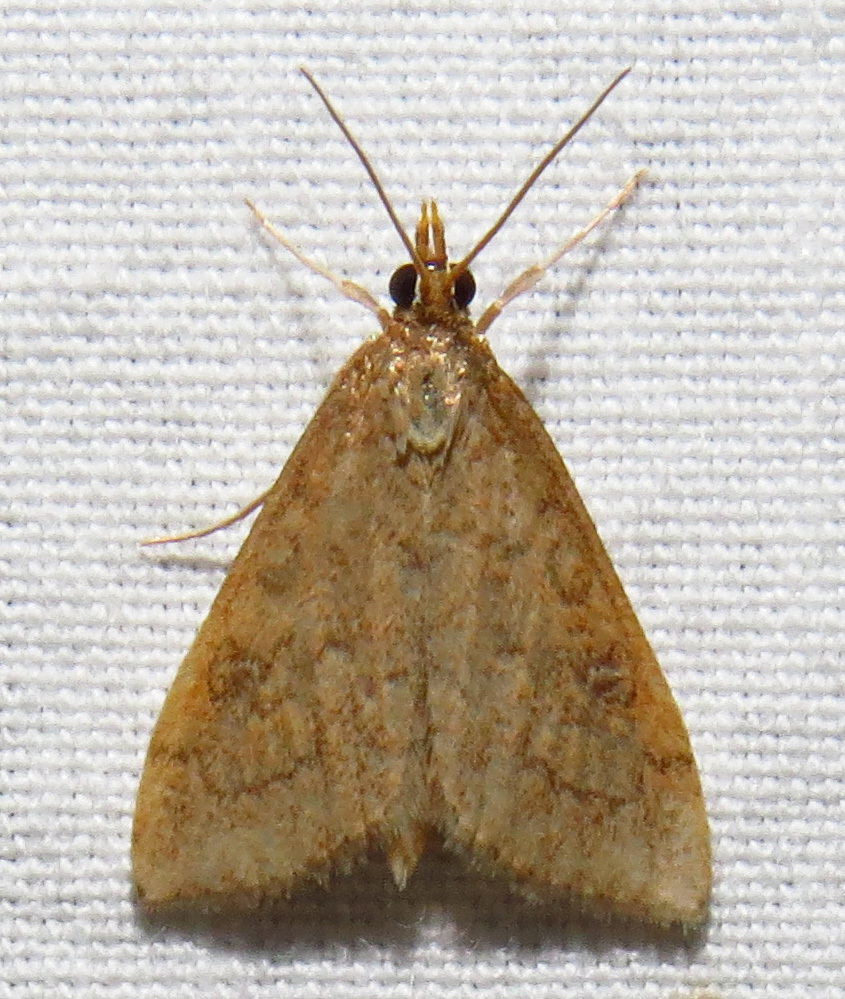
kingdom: Animalia
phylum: Arthropoda
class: Insecta
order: Lepidoptera
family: Crambidae
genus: Udea
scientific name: Udea rubigalis
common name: Celery leaftier moth
